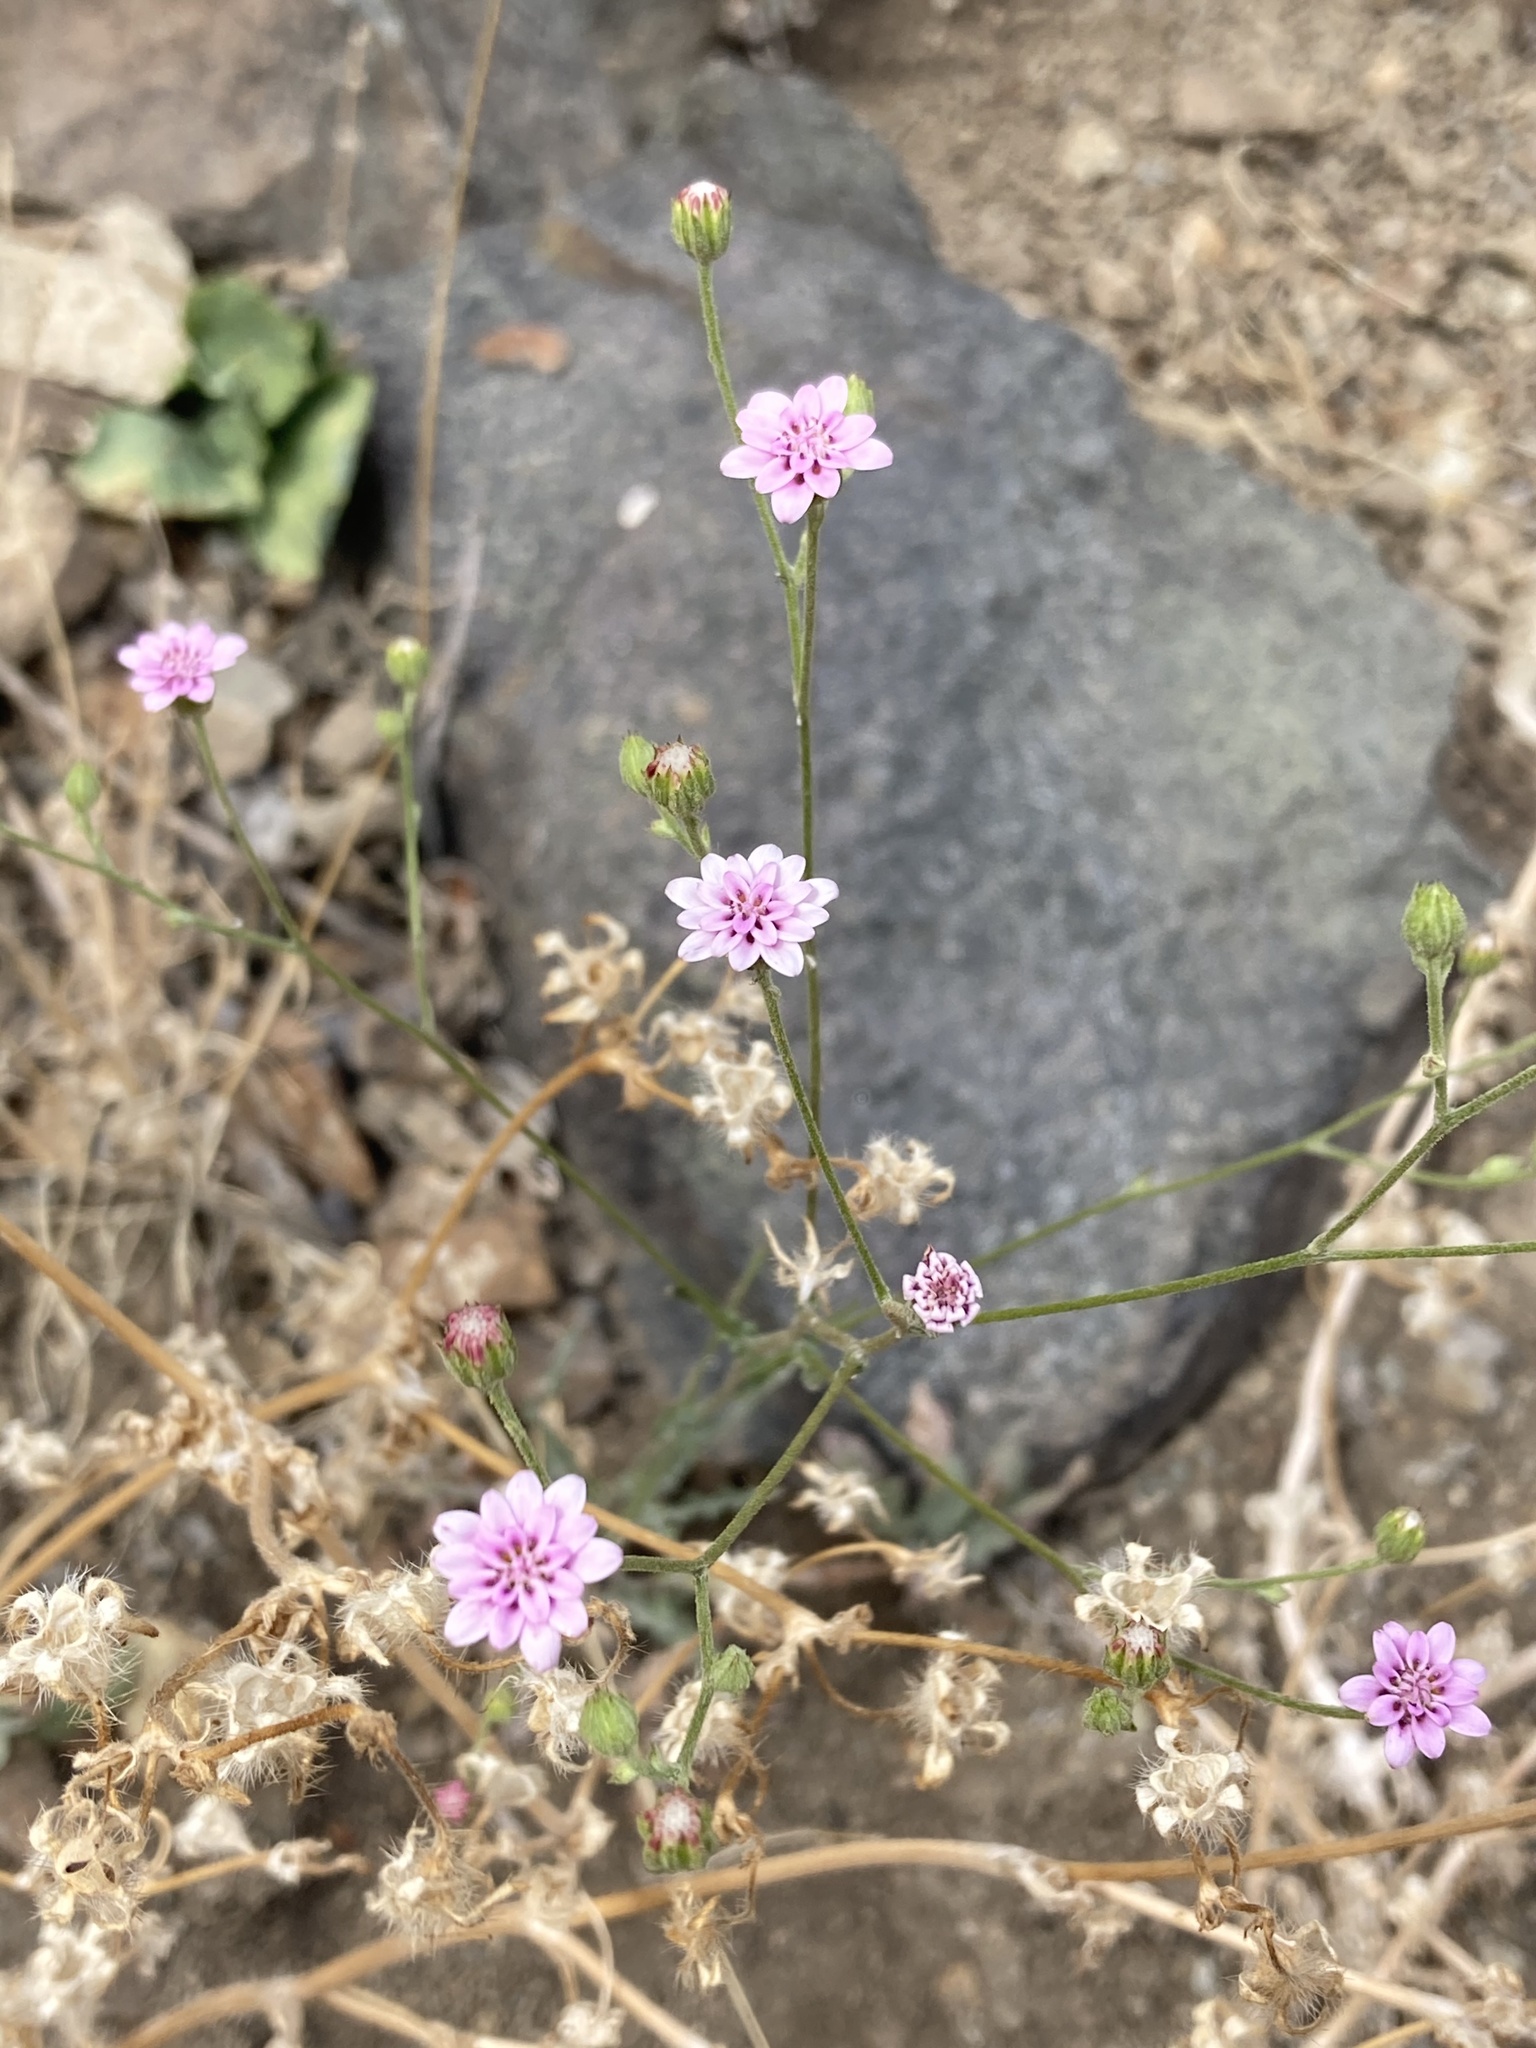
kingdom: Plantae
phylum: Tracheophyta
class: Magnoliopsida
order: Asterales
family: Asteraceae
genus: Leucheria
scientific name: Leucheria rosea
